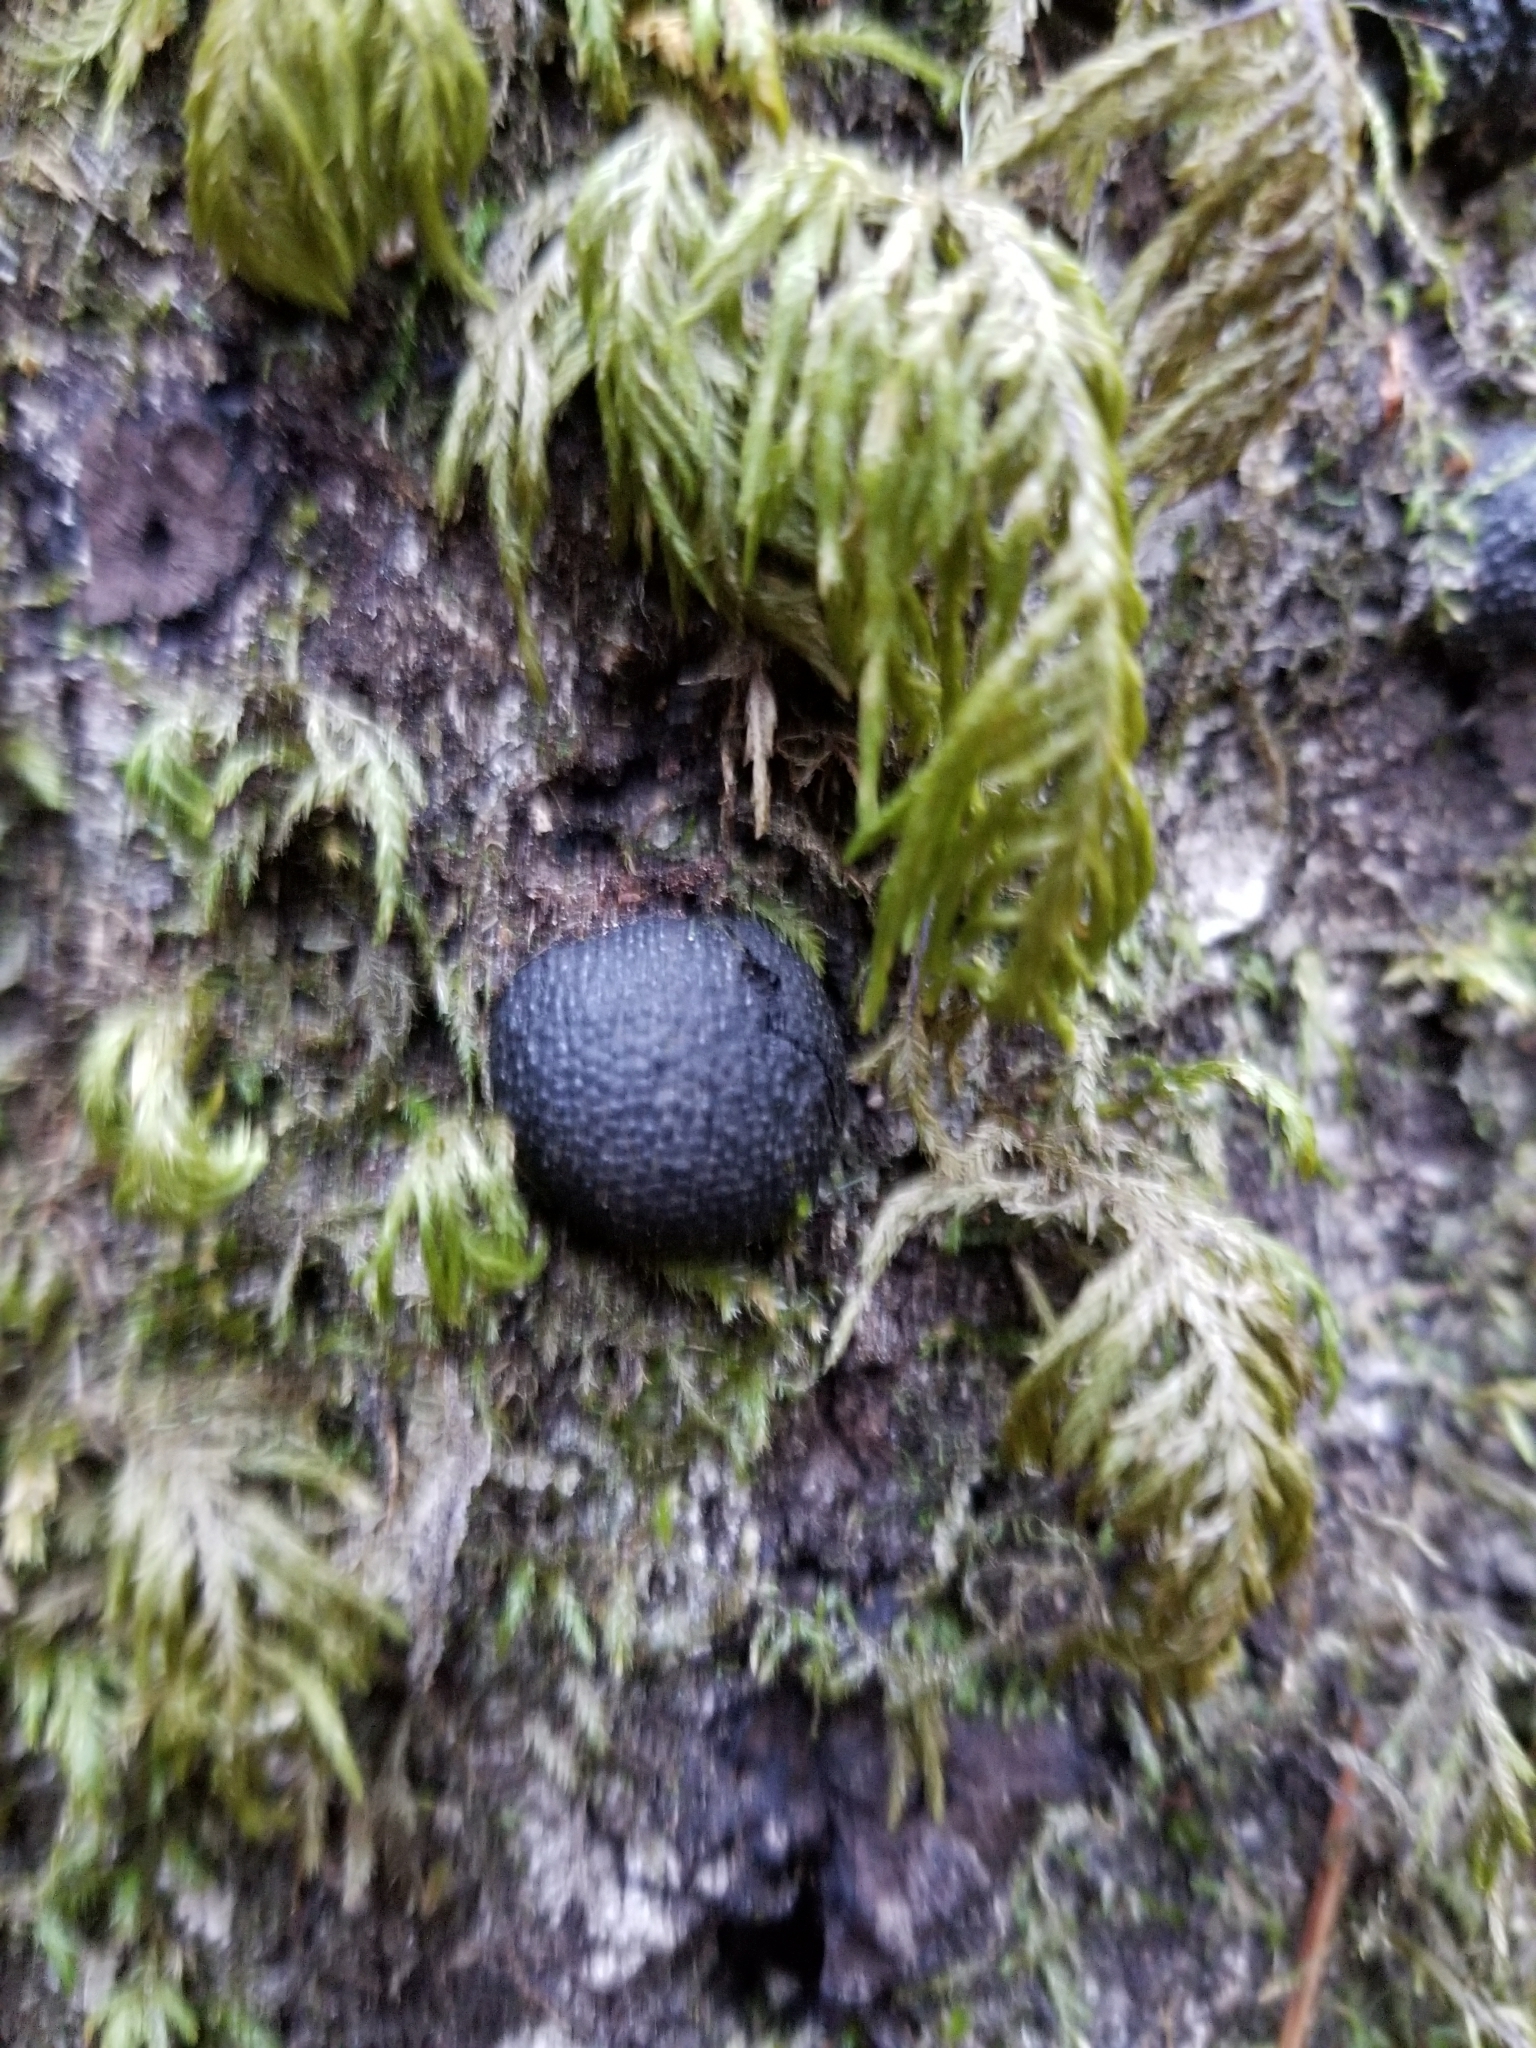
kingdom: Fungi
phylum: Ascomycota
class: Sordariomycetes
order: Xylariales
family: Hypoxylaceae
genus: Annulohypoxylon
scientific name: Annulohypoxylon thouarsianum
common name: Cramp balls
